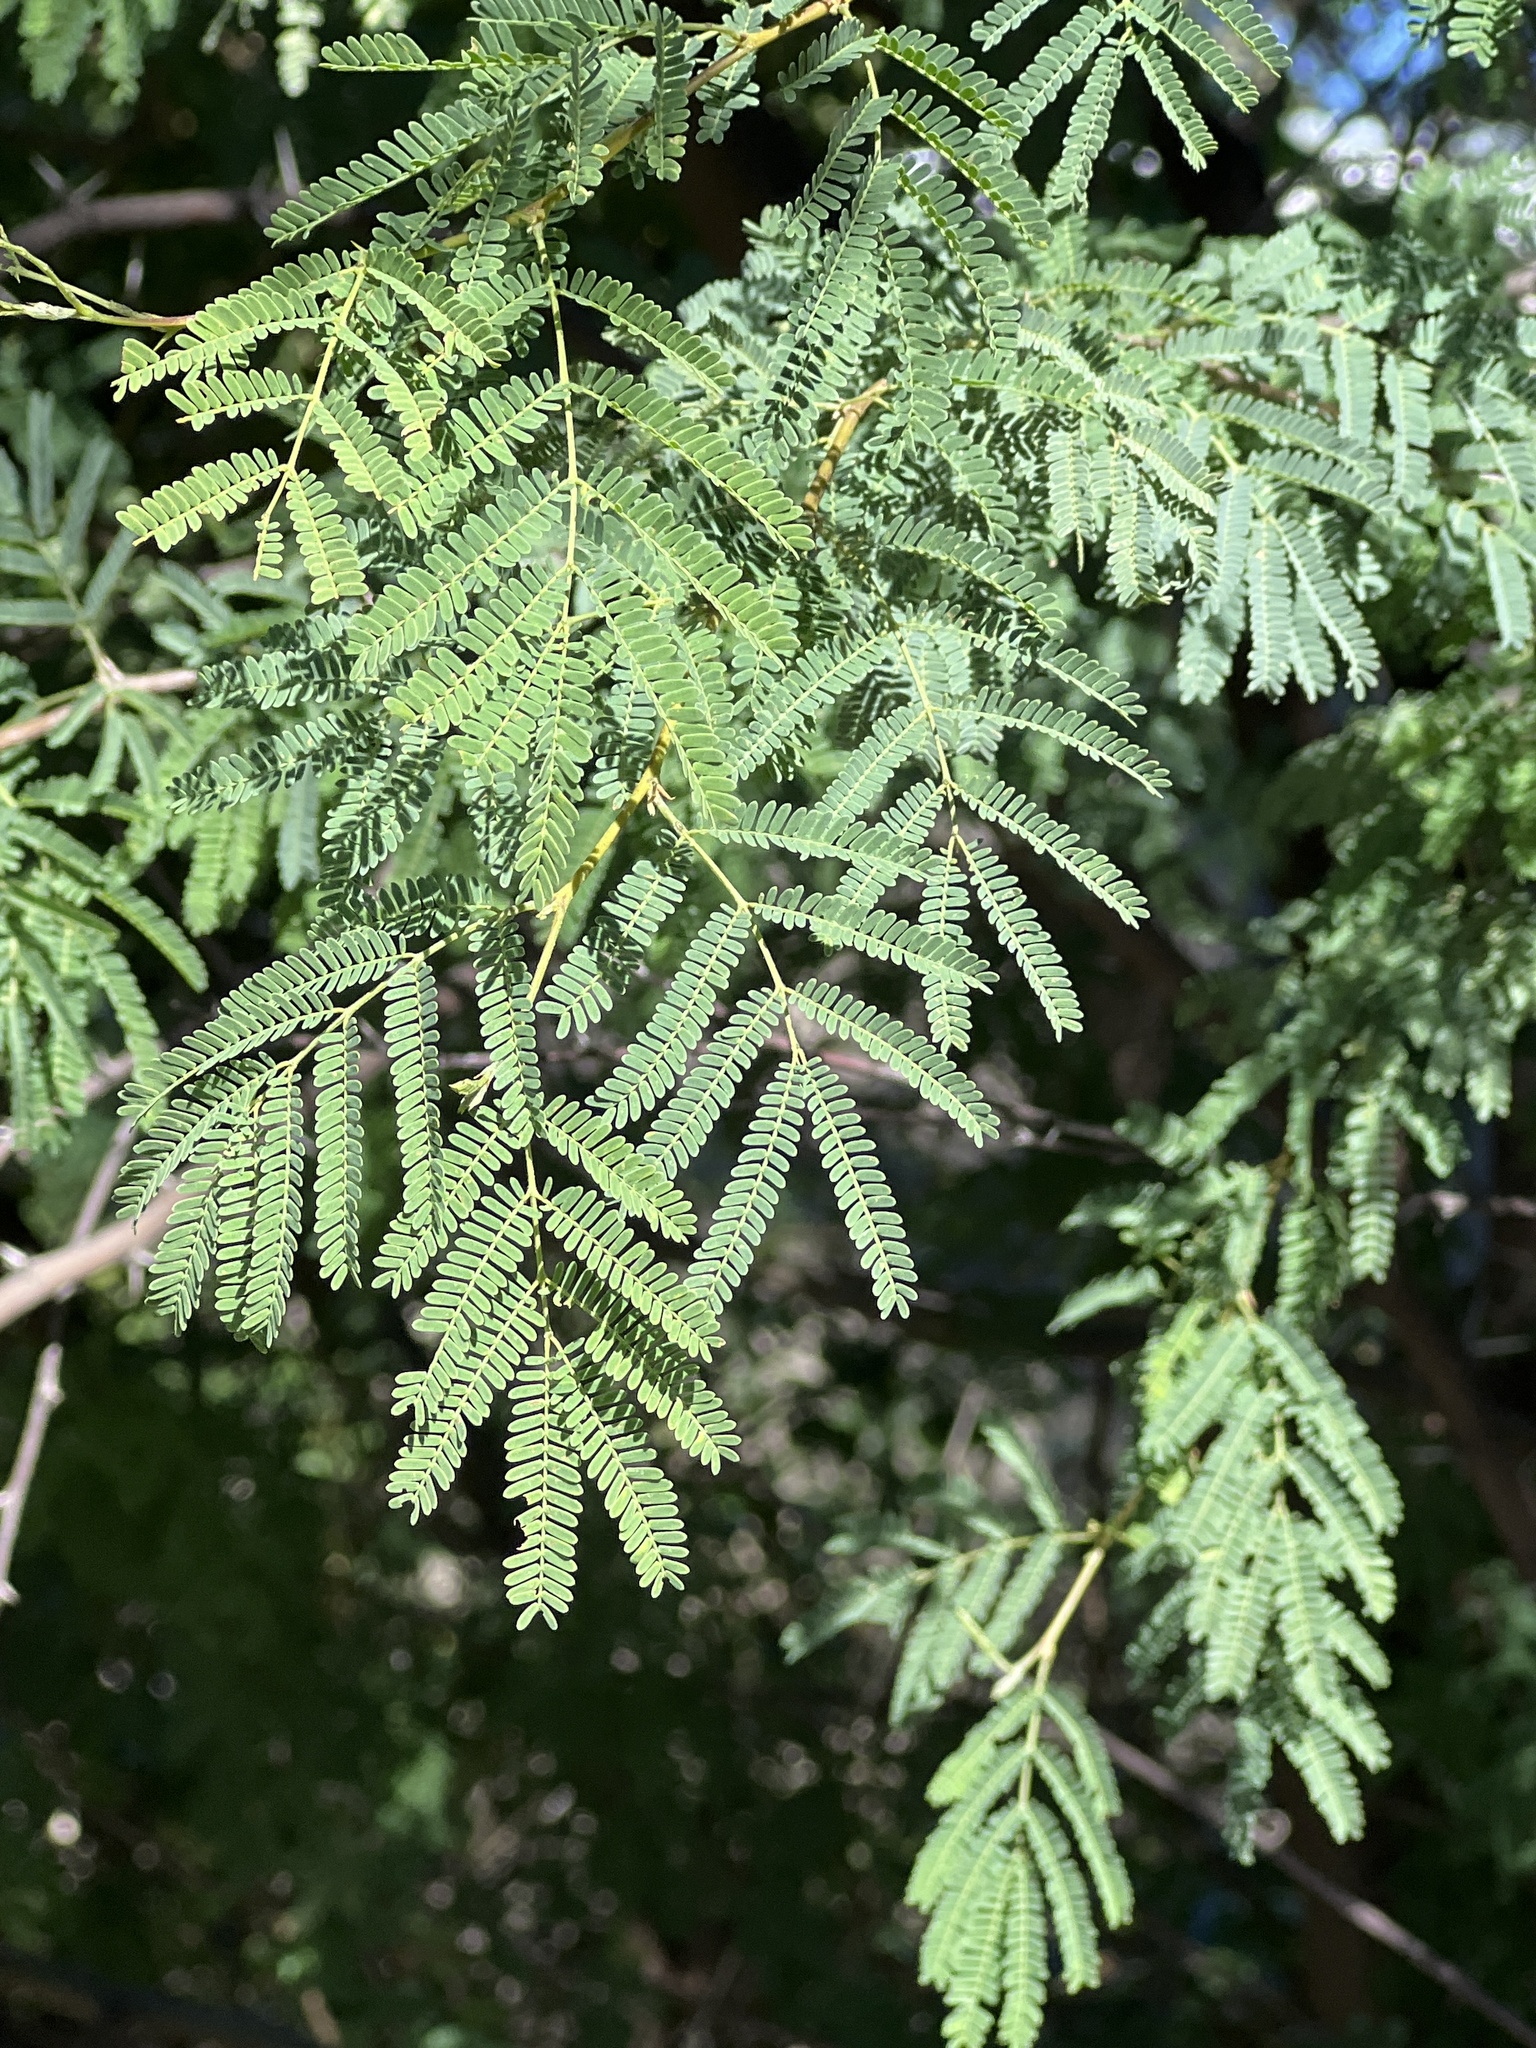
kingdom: Plantae
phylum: Tracheophyta
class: Magnoliopsida
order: Fabales
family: Fabaceae
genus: Vachellia
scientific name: Vachellia farnesiana
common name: Sweet acacia
